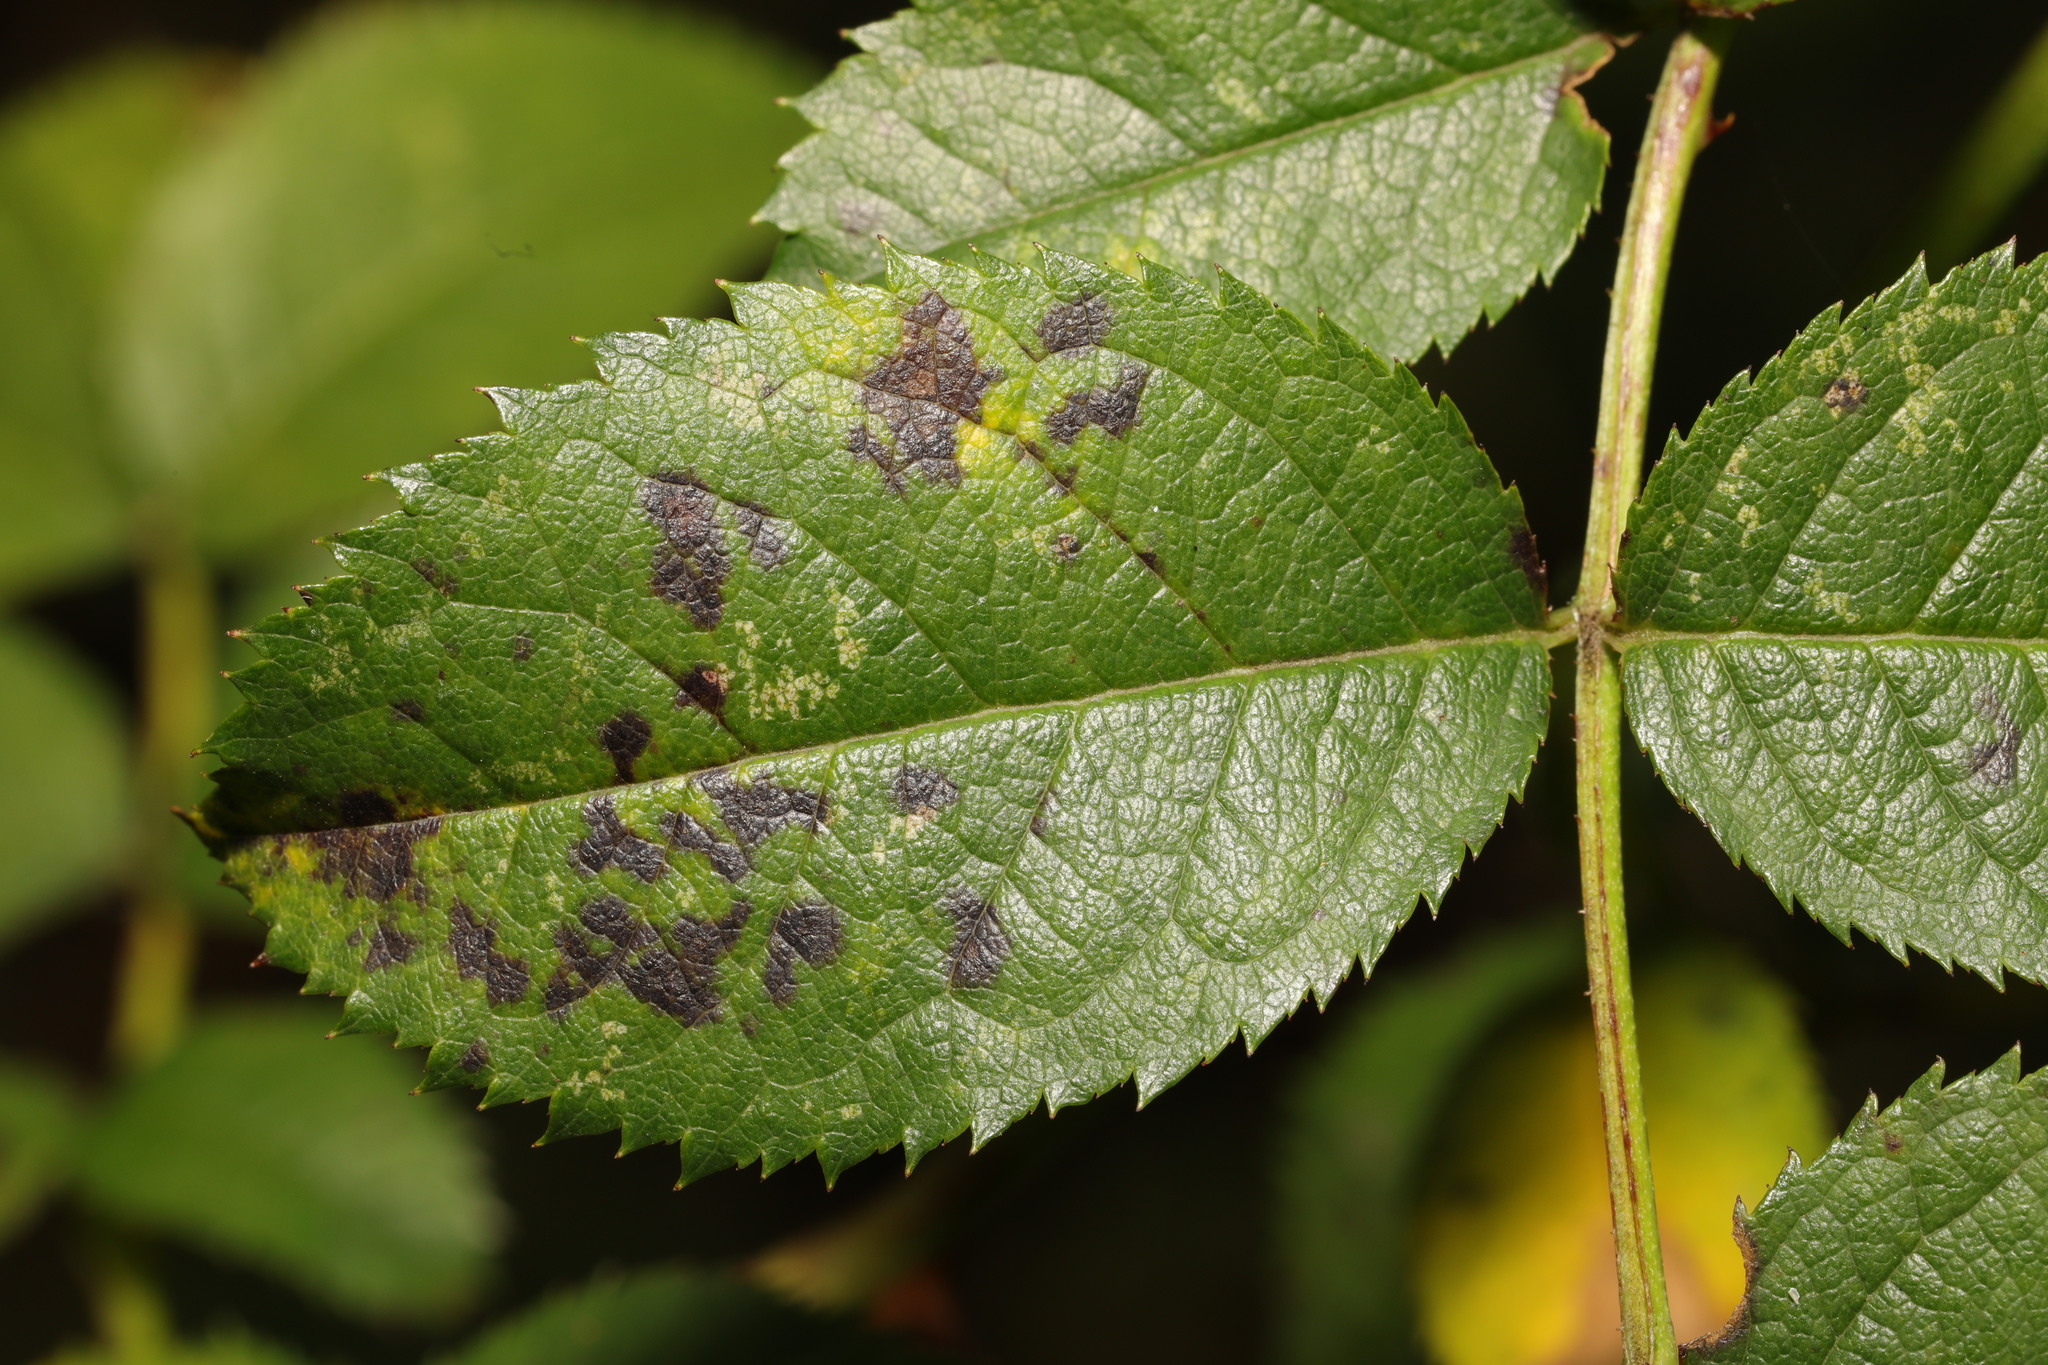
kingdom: Fungi
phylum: Ascomycota
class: Leotiomycetes
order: Helotiales
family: Drepanopezizaceae
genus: Diplocarpon
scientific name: Diplocarpon rosae
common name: Rose black-spot
